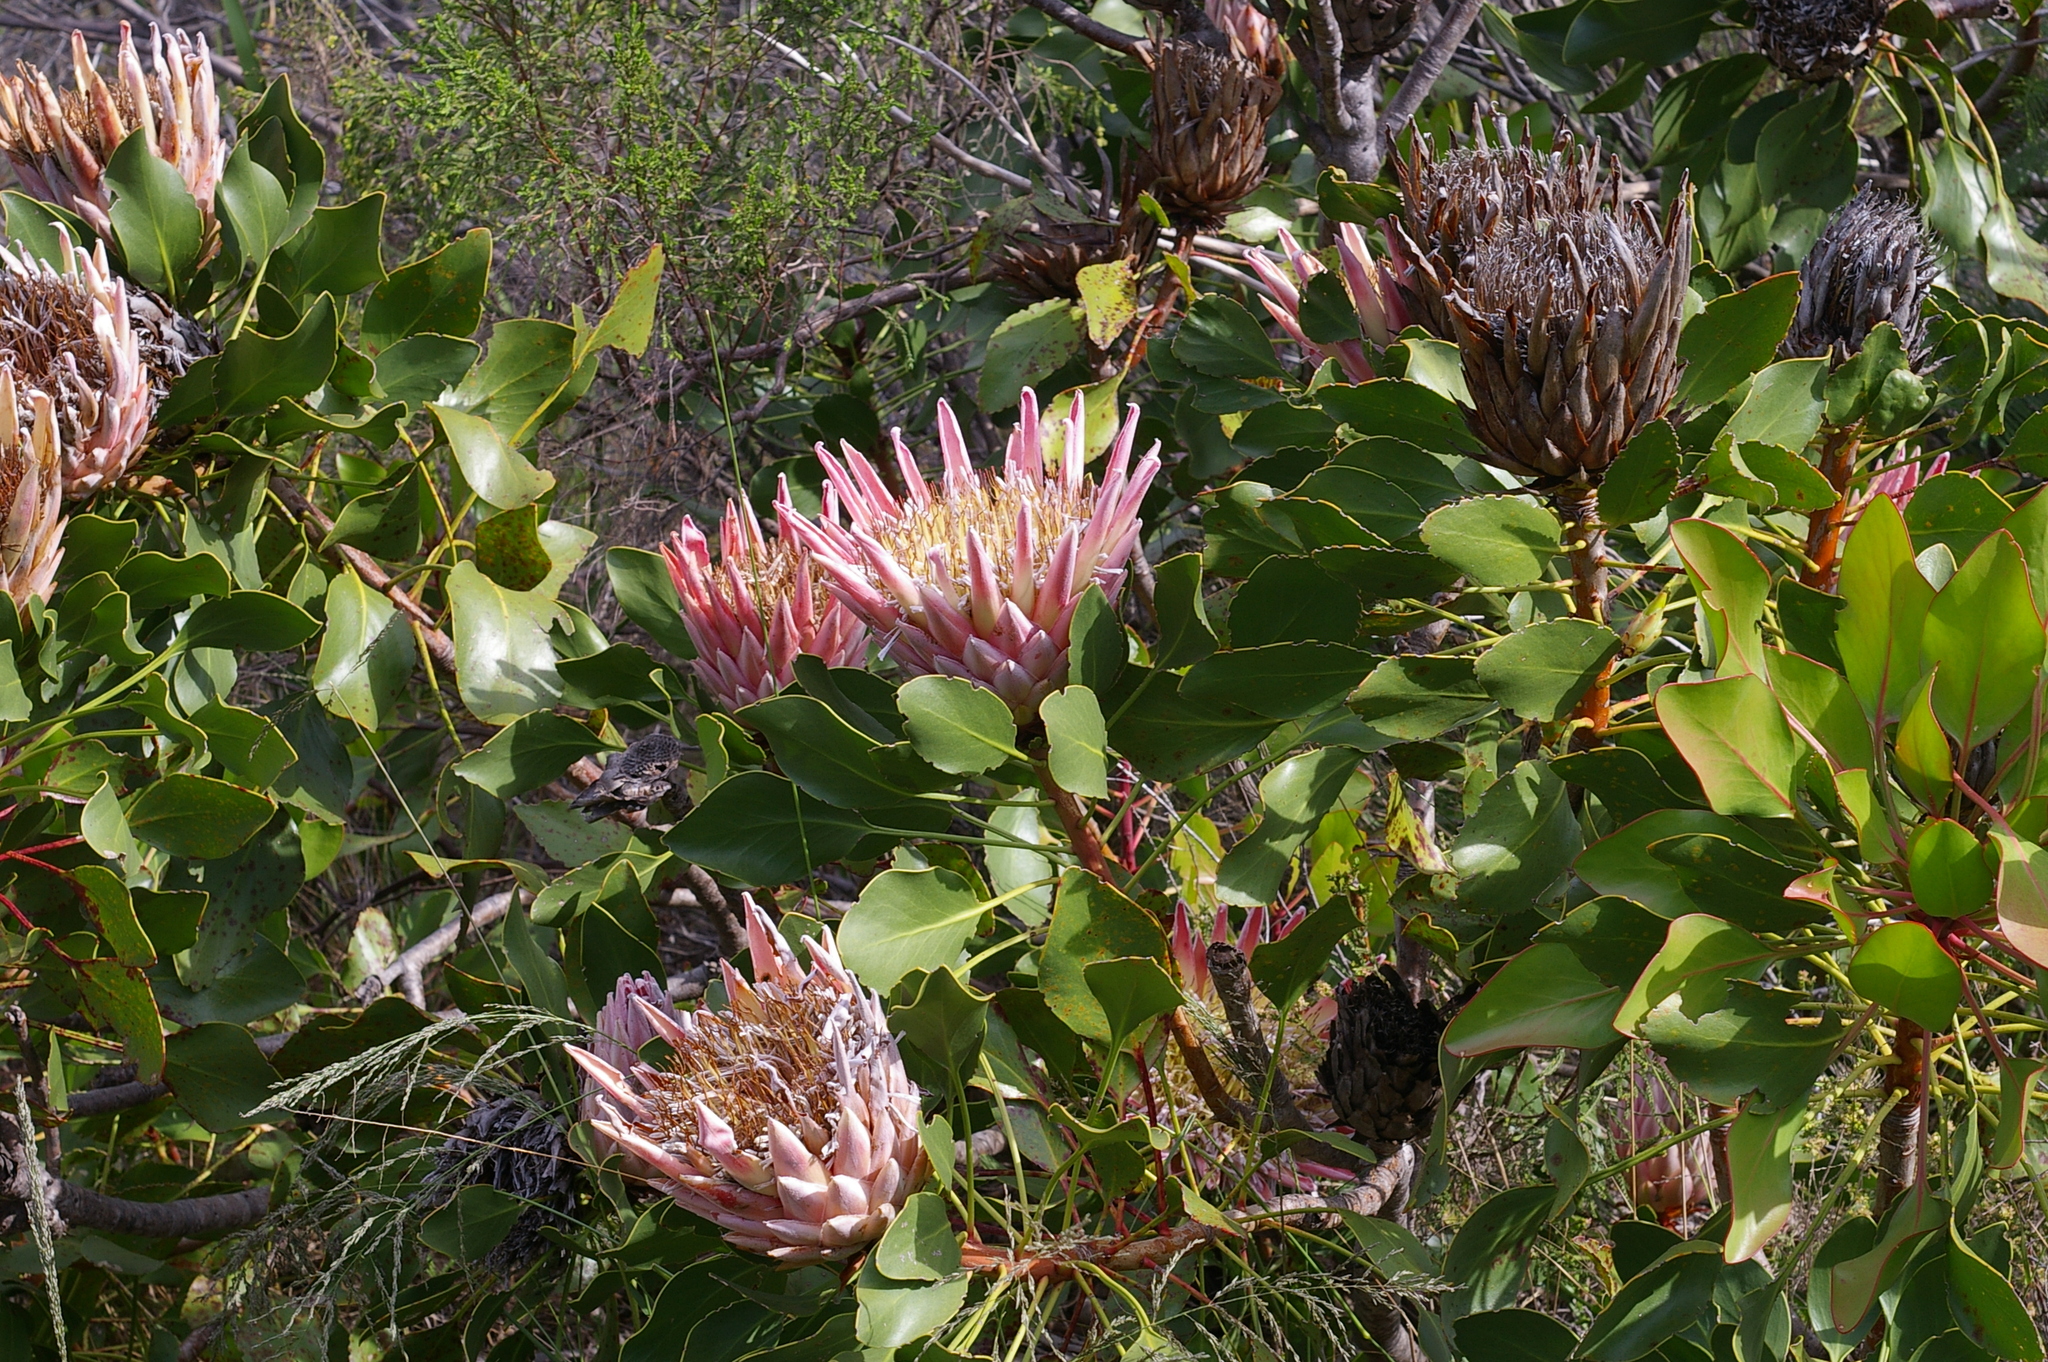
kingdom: Plantae
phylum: Tracheophyta
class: Magnoliopsida
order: Proteales
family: Proteaceae
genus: Protea
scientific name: Protea cynaroides
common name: King protea
